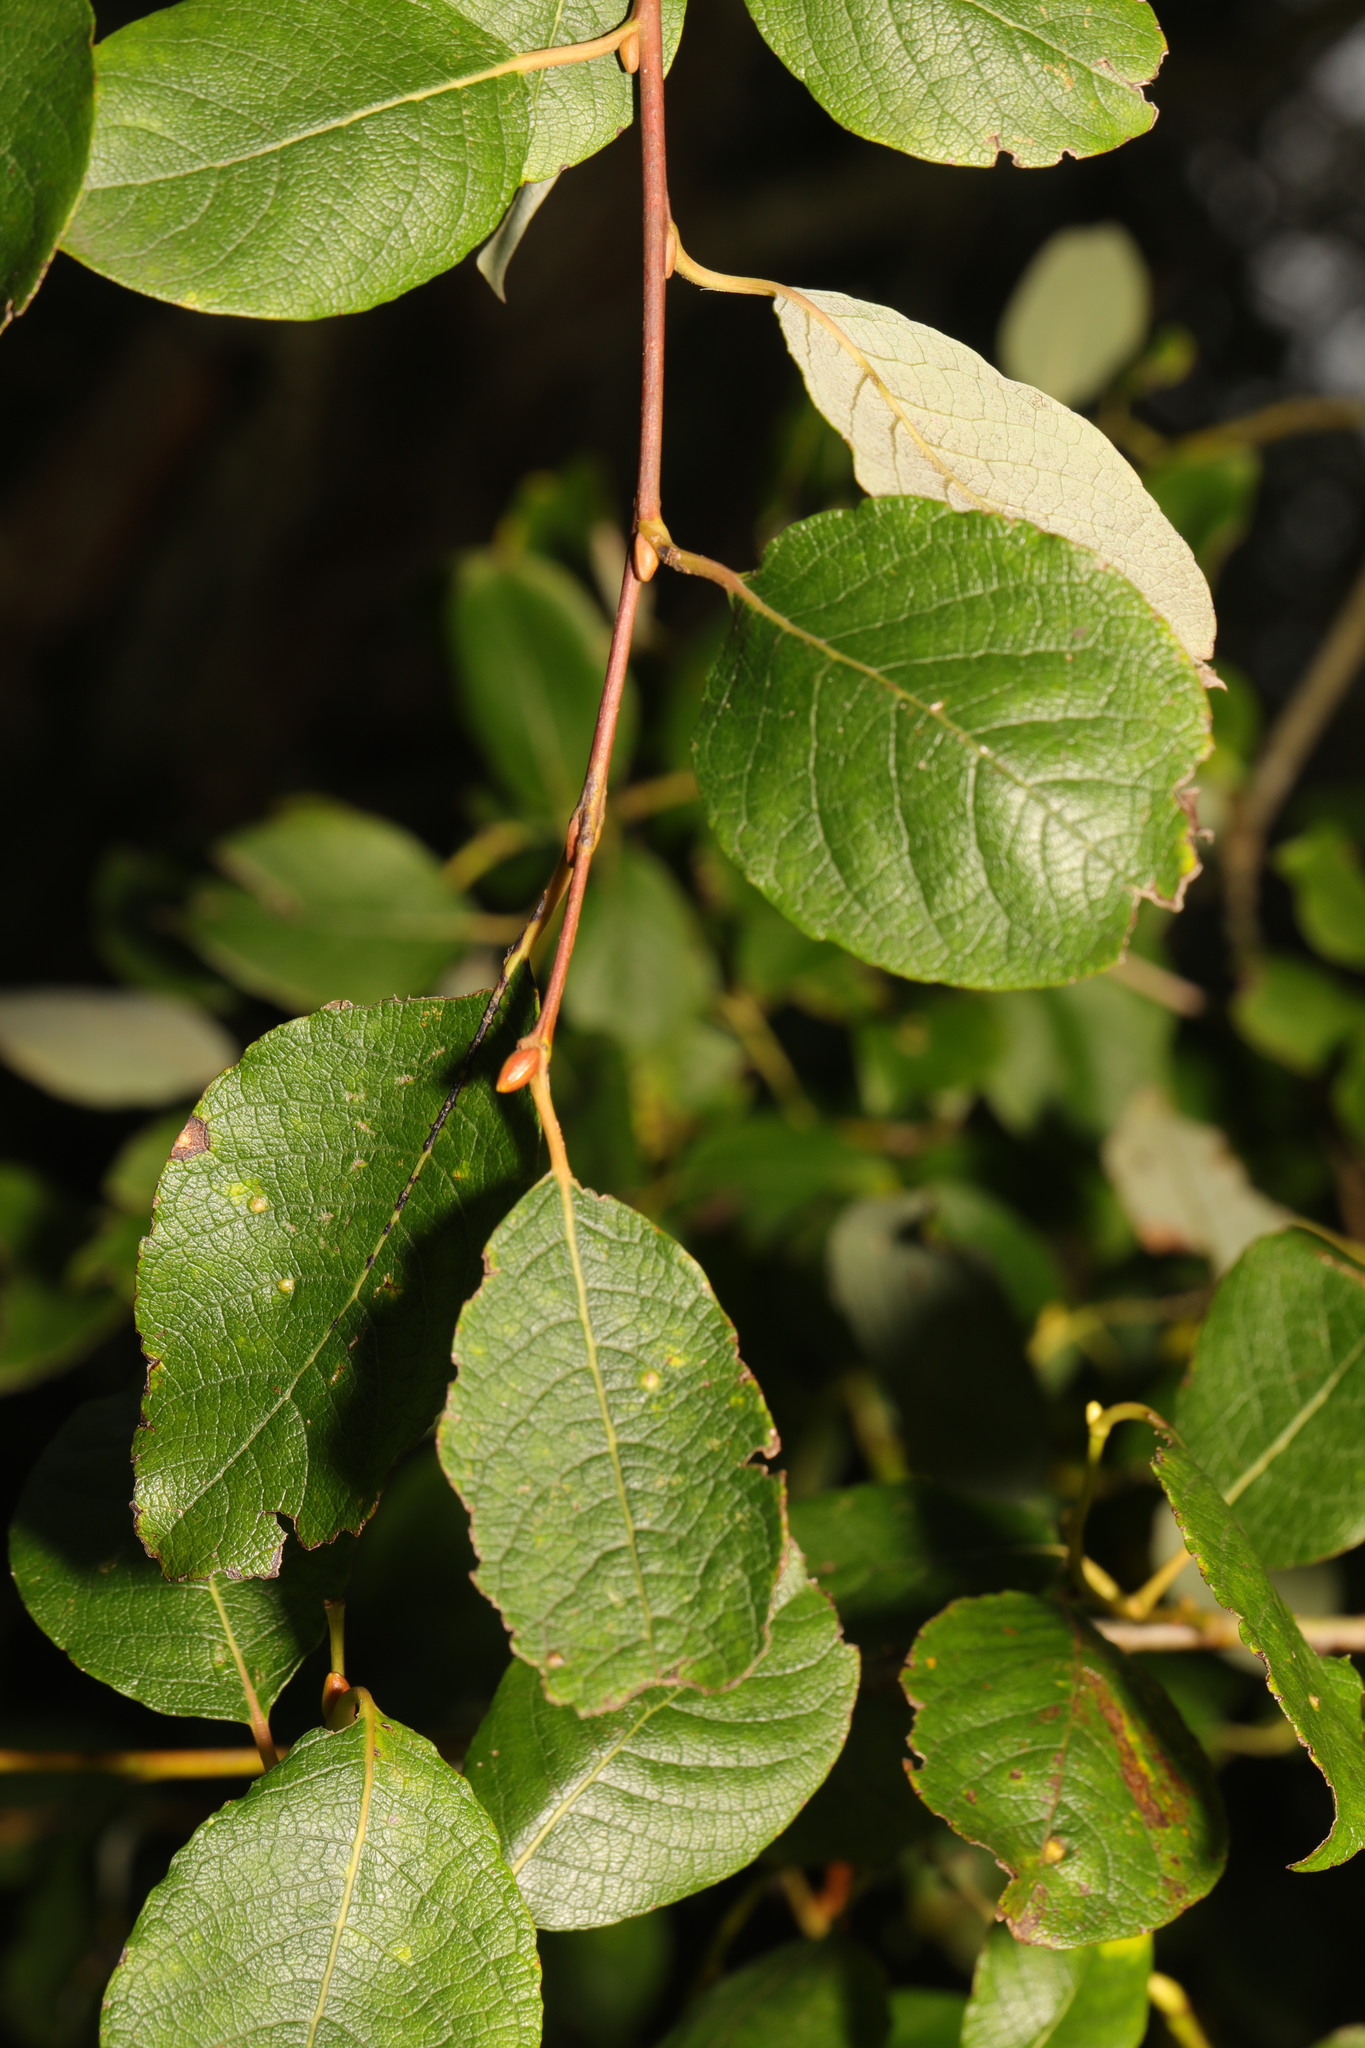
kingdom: Plantae
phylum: Tracheophyta
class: Magnoliopsida
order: Malpighiales
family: Salicaceae
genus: Salix
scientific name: Salix caprea
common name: Goat willow
